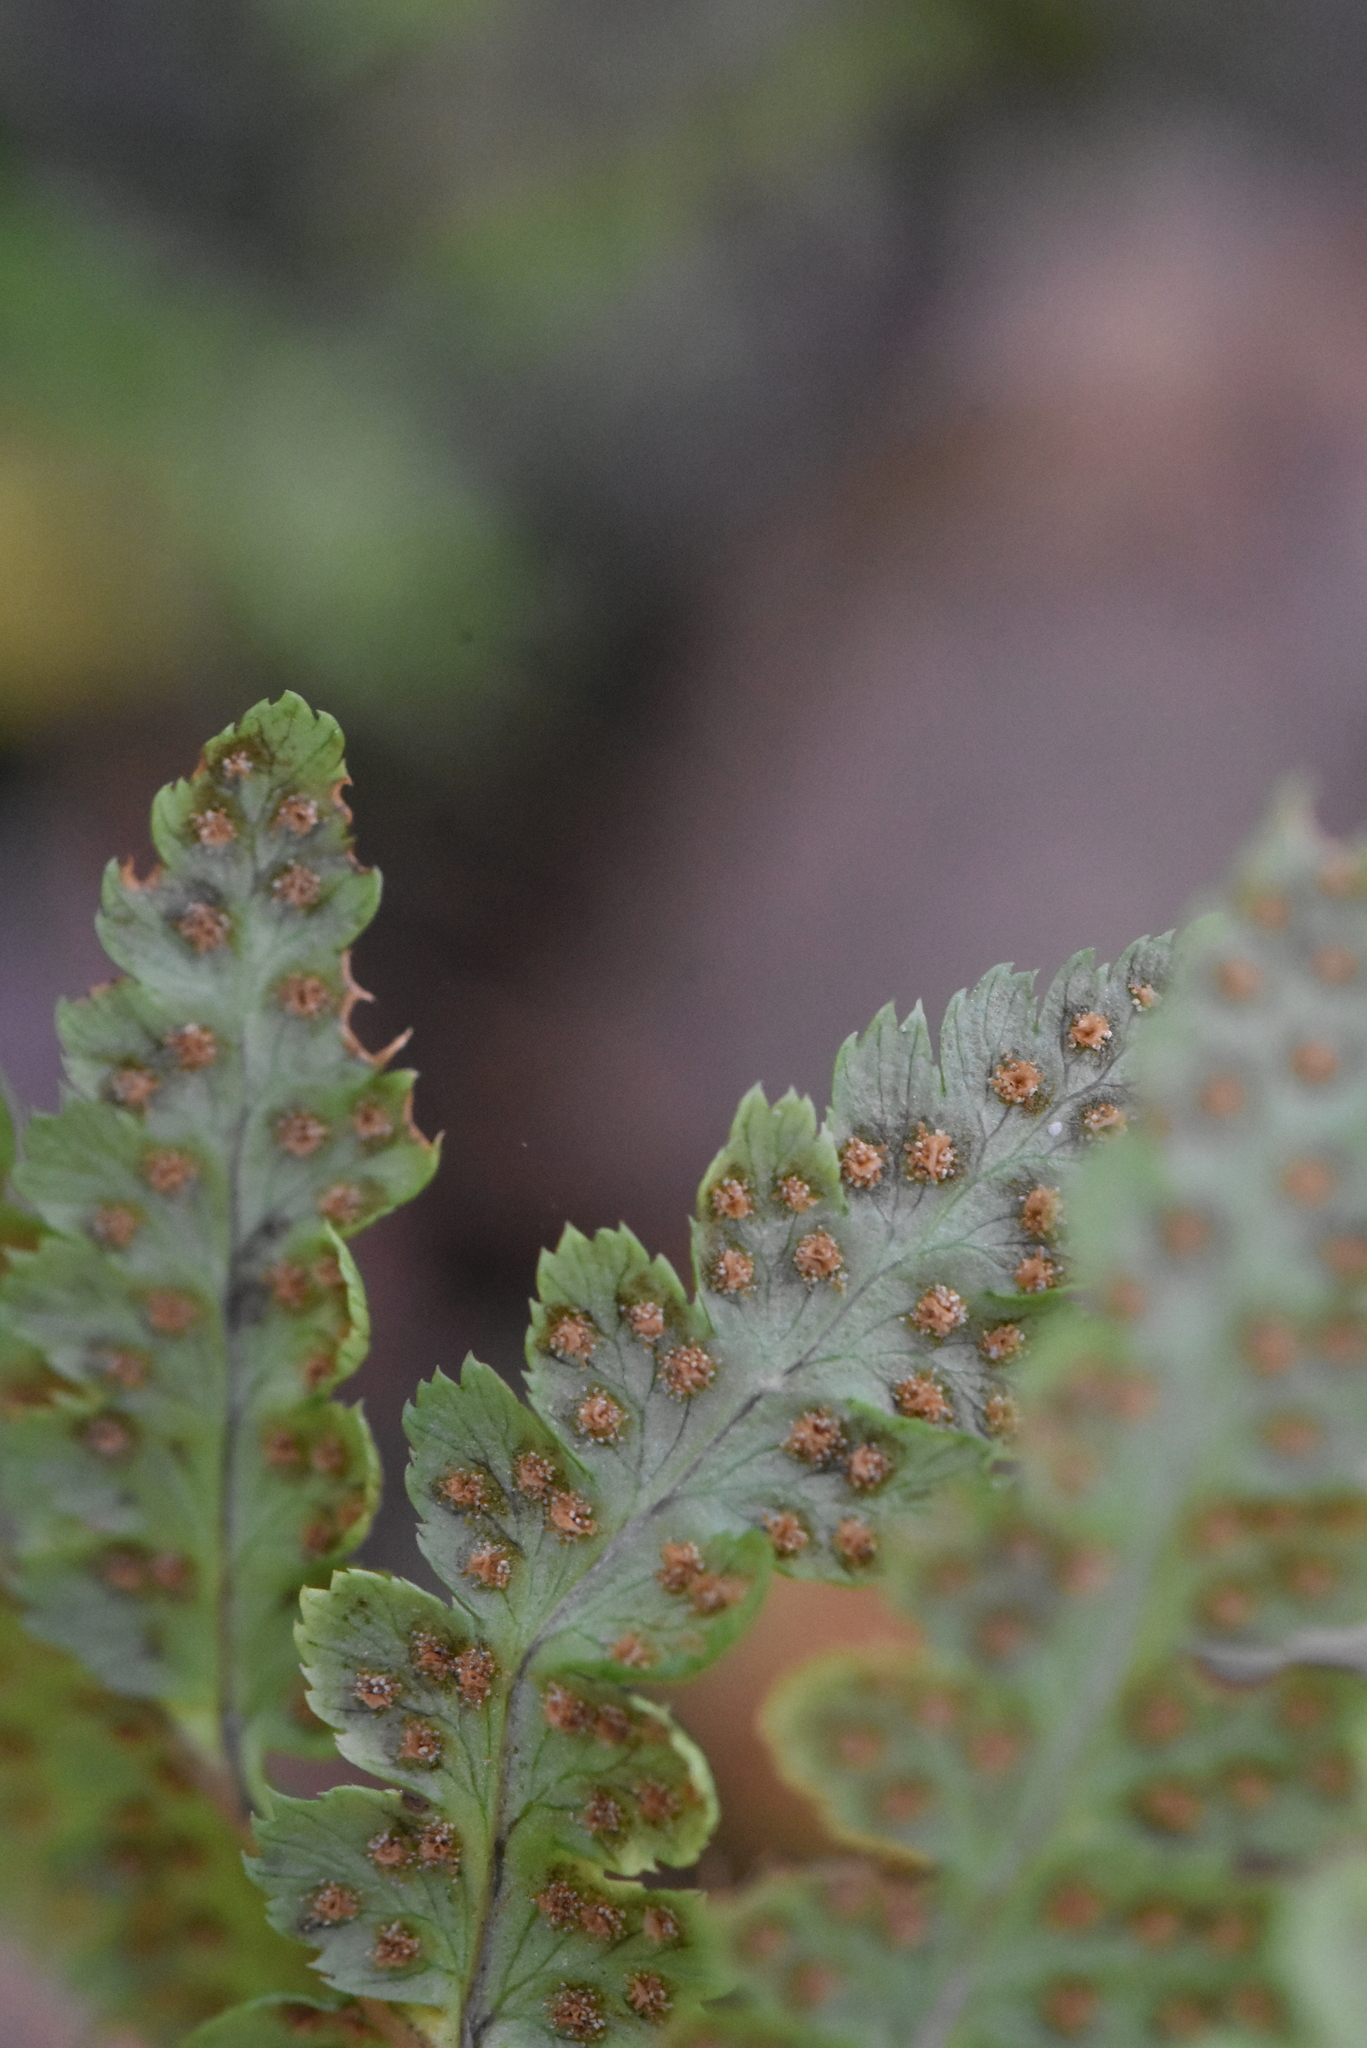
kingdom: Plantae
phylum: Tracheophyta
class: Polypodiopsida
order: Polypodiales
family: Dryopteridaceae
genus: Dryopteris
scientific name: Dryopteris cristata
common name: Crested wood fern
